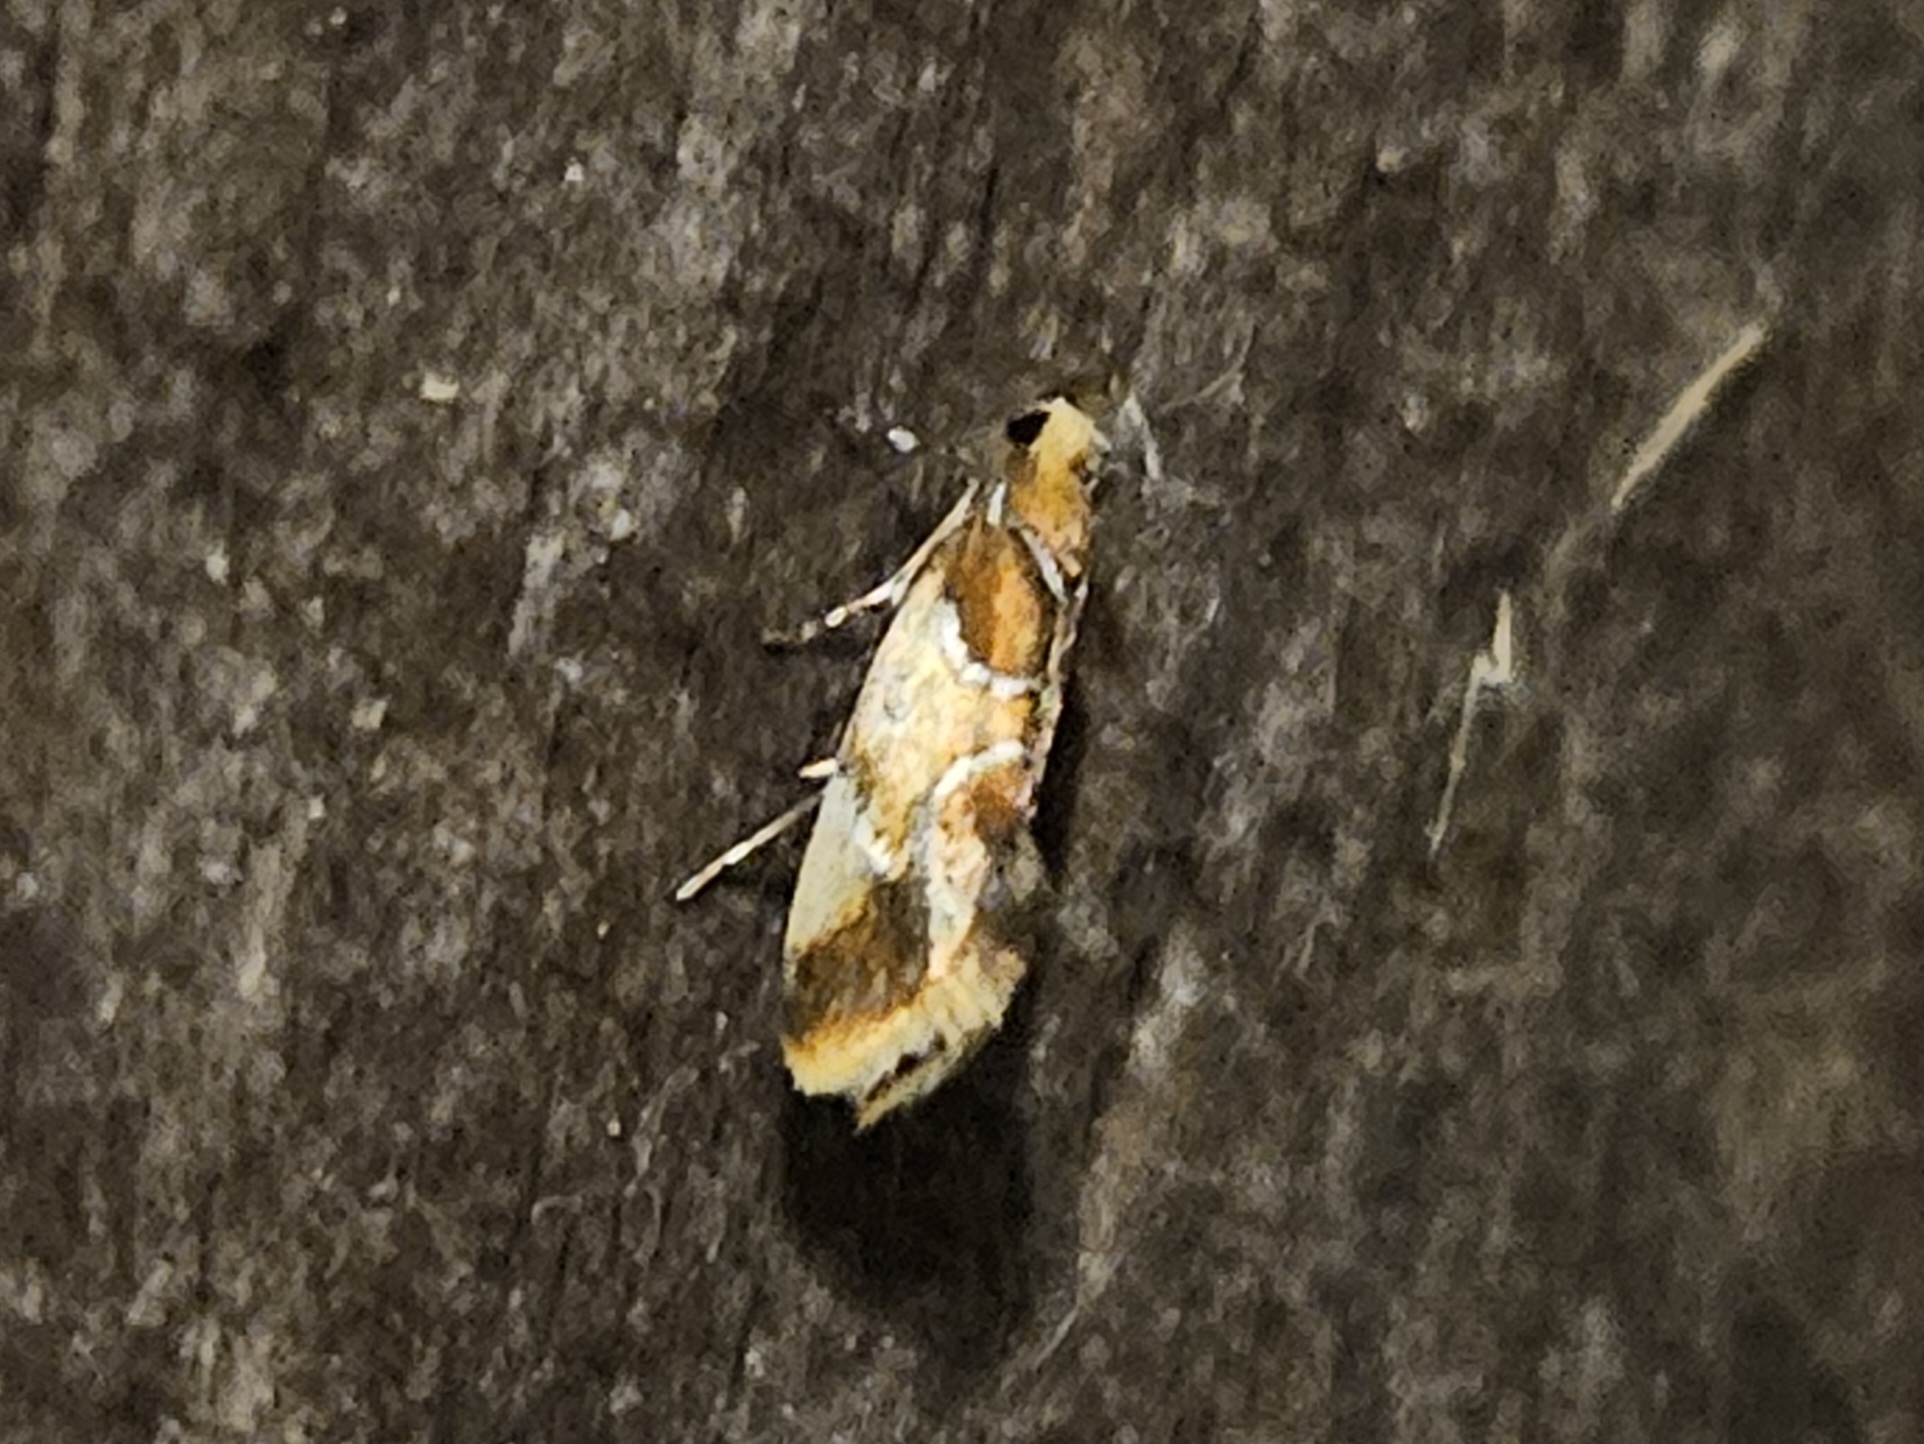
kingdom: Animalia
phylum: Arthropoda
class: Insecta
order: Lepidoptera
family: Oecophoridae
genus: Callima
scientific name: Callima argenticinctella
